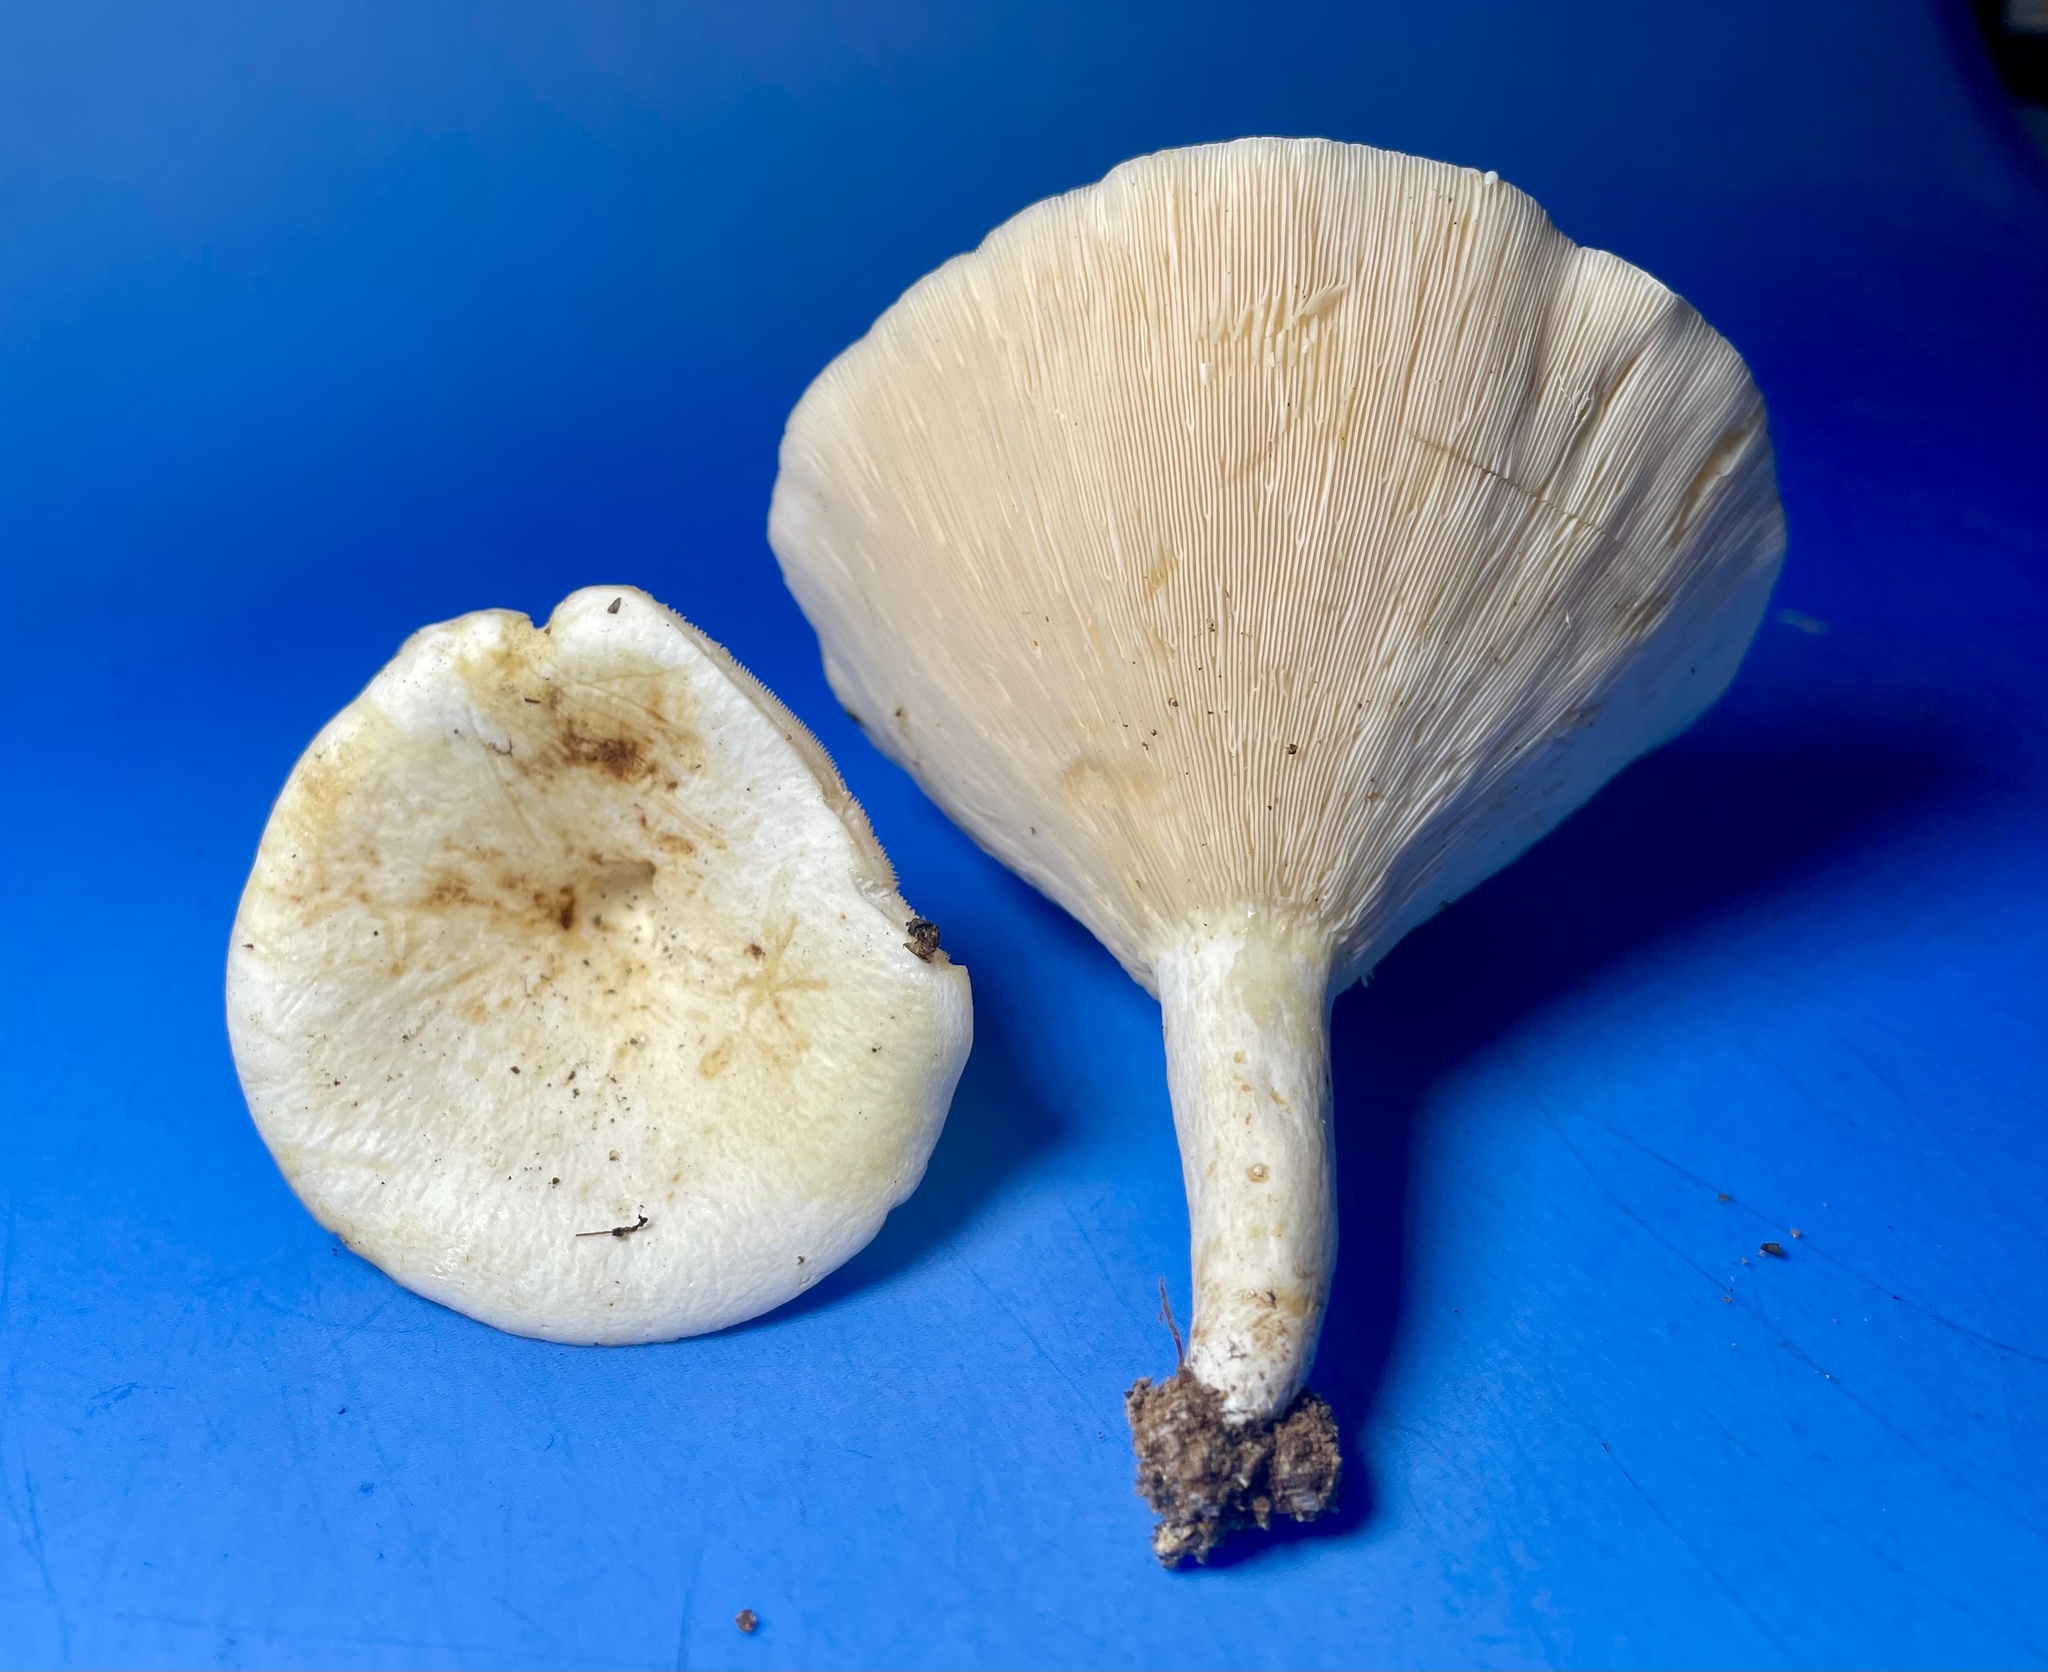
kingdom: Fungi
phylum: Basidiomycota
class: Agaricomycetes
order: Russulales
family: Russulaceae
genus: Lactifluus
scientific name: Lactifluus piperatus
